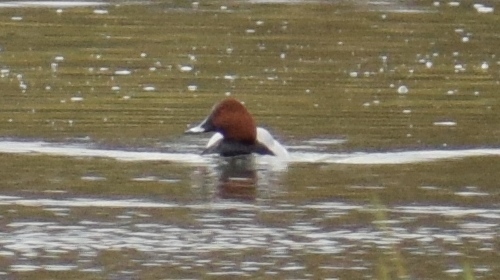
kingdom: Animalia
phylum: Chordata
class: Aves
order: Anseriformes
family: Anatidae
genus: Aythya
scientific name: Aythya ferina
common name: Common pochard
